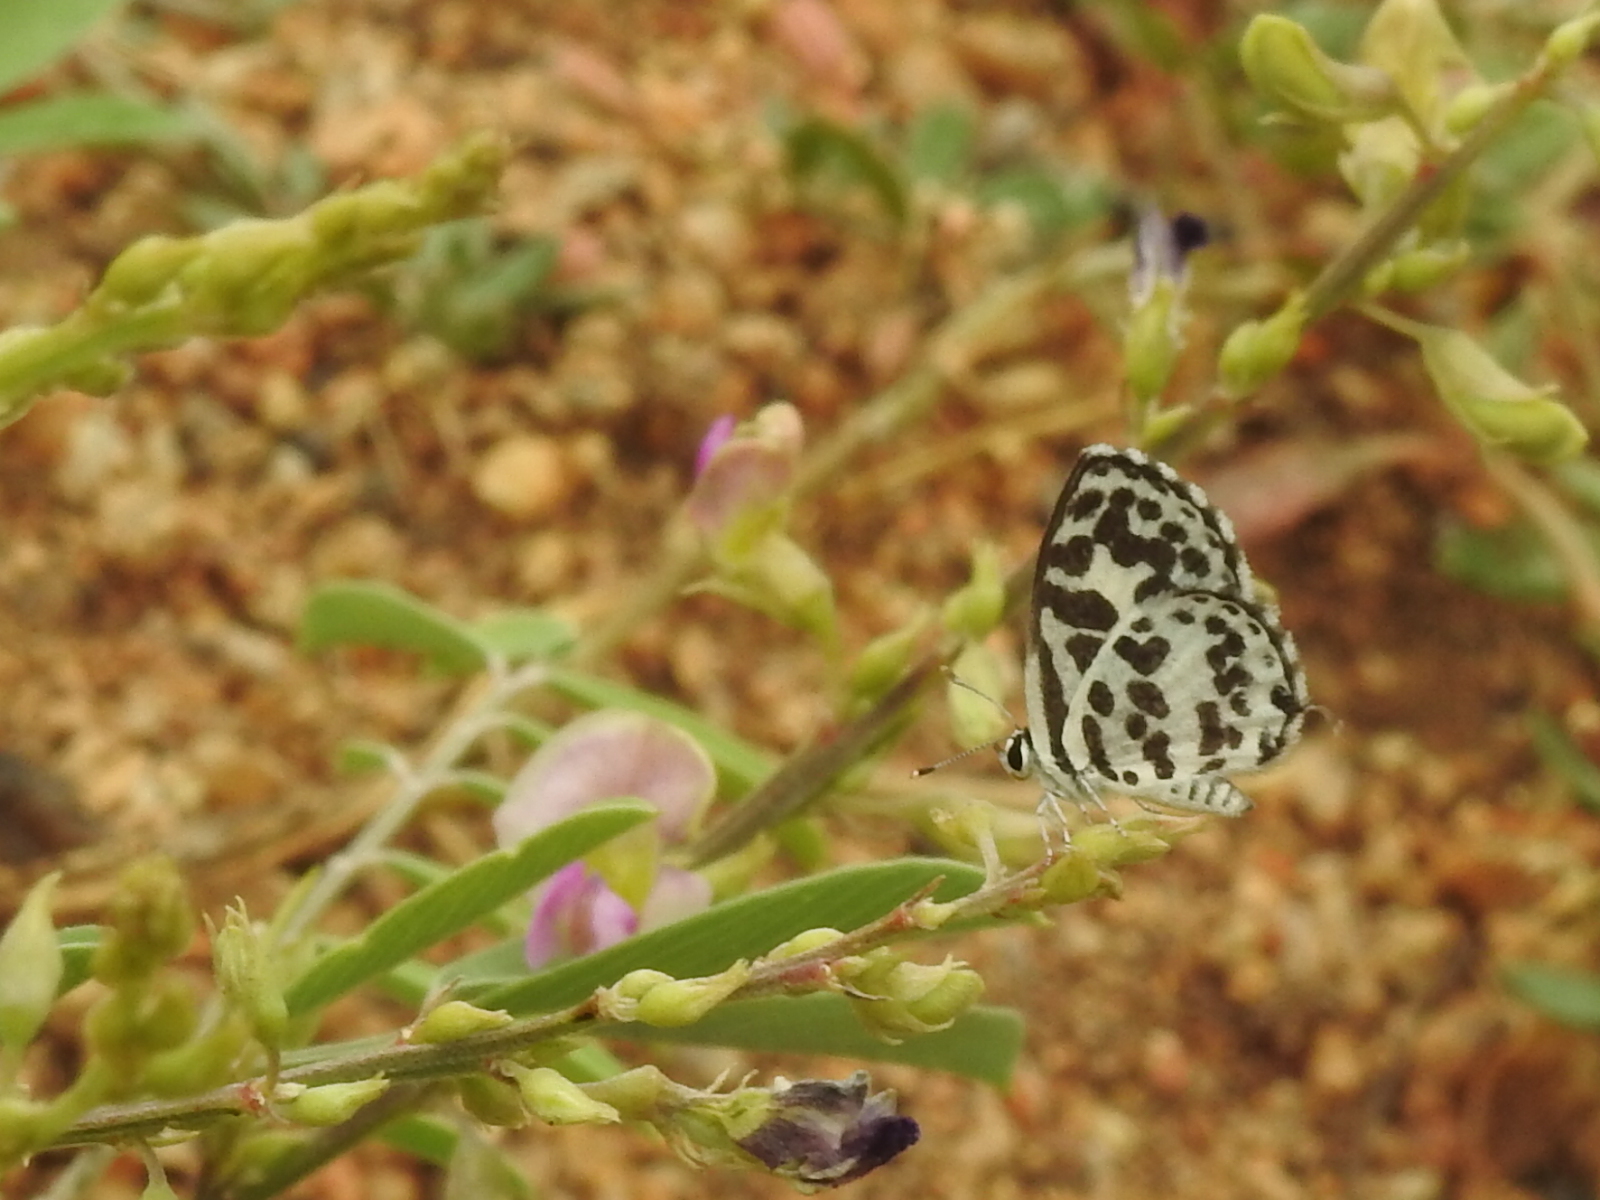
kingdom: Animalia
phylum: Arthropoda
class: Insecta
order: Lepidoptera
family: Lycaenidae
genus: Castalius
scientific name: Castalius rosimon
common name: Common pierrot
